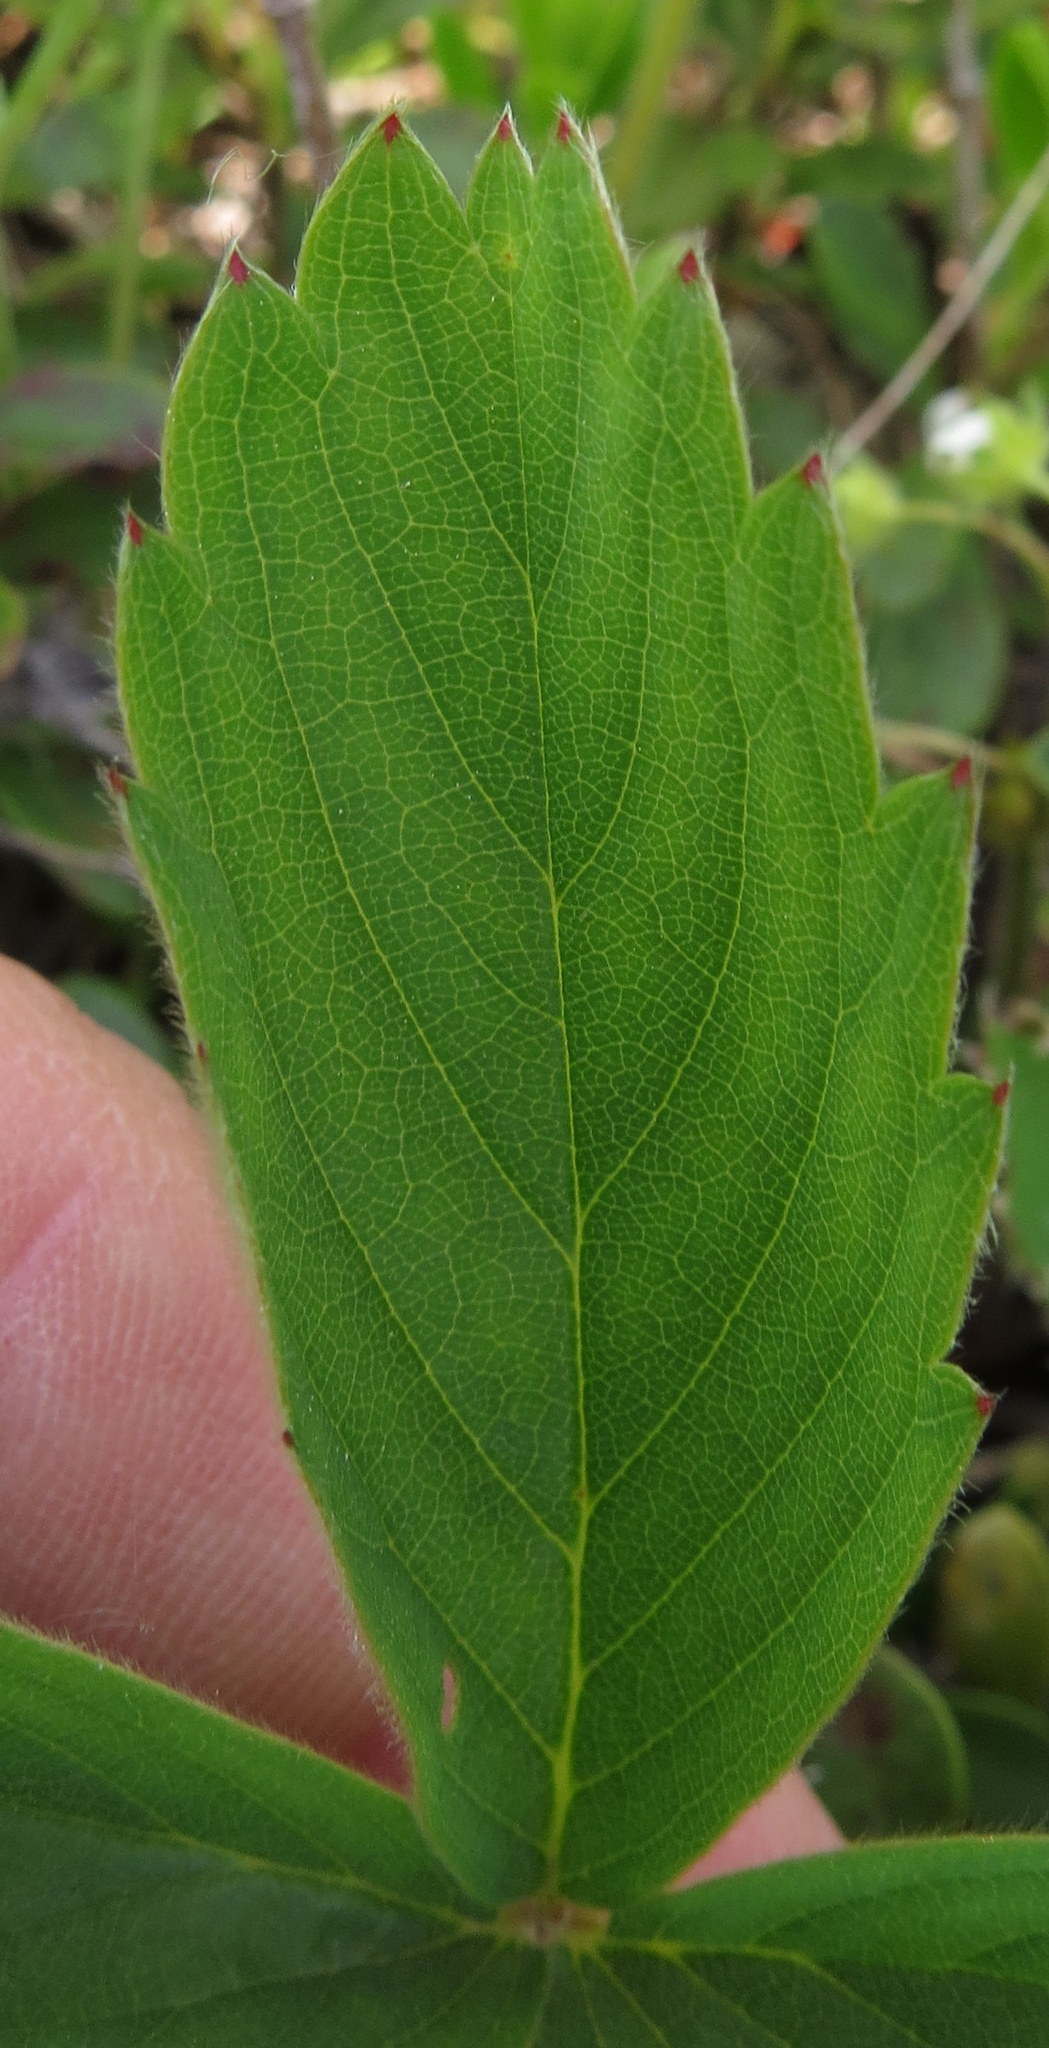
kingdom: Plantae
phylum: Tracheophyta
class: Magnoliopsida
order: Rosales
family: Rosaceae
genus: Fragaria
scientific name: Fragaria virginiana
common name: Thickleaved wild strawberry
